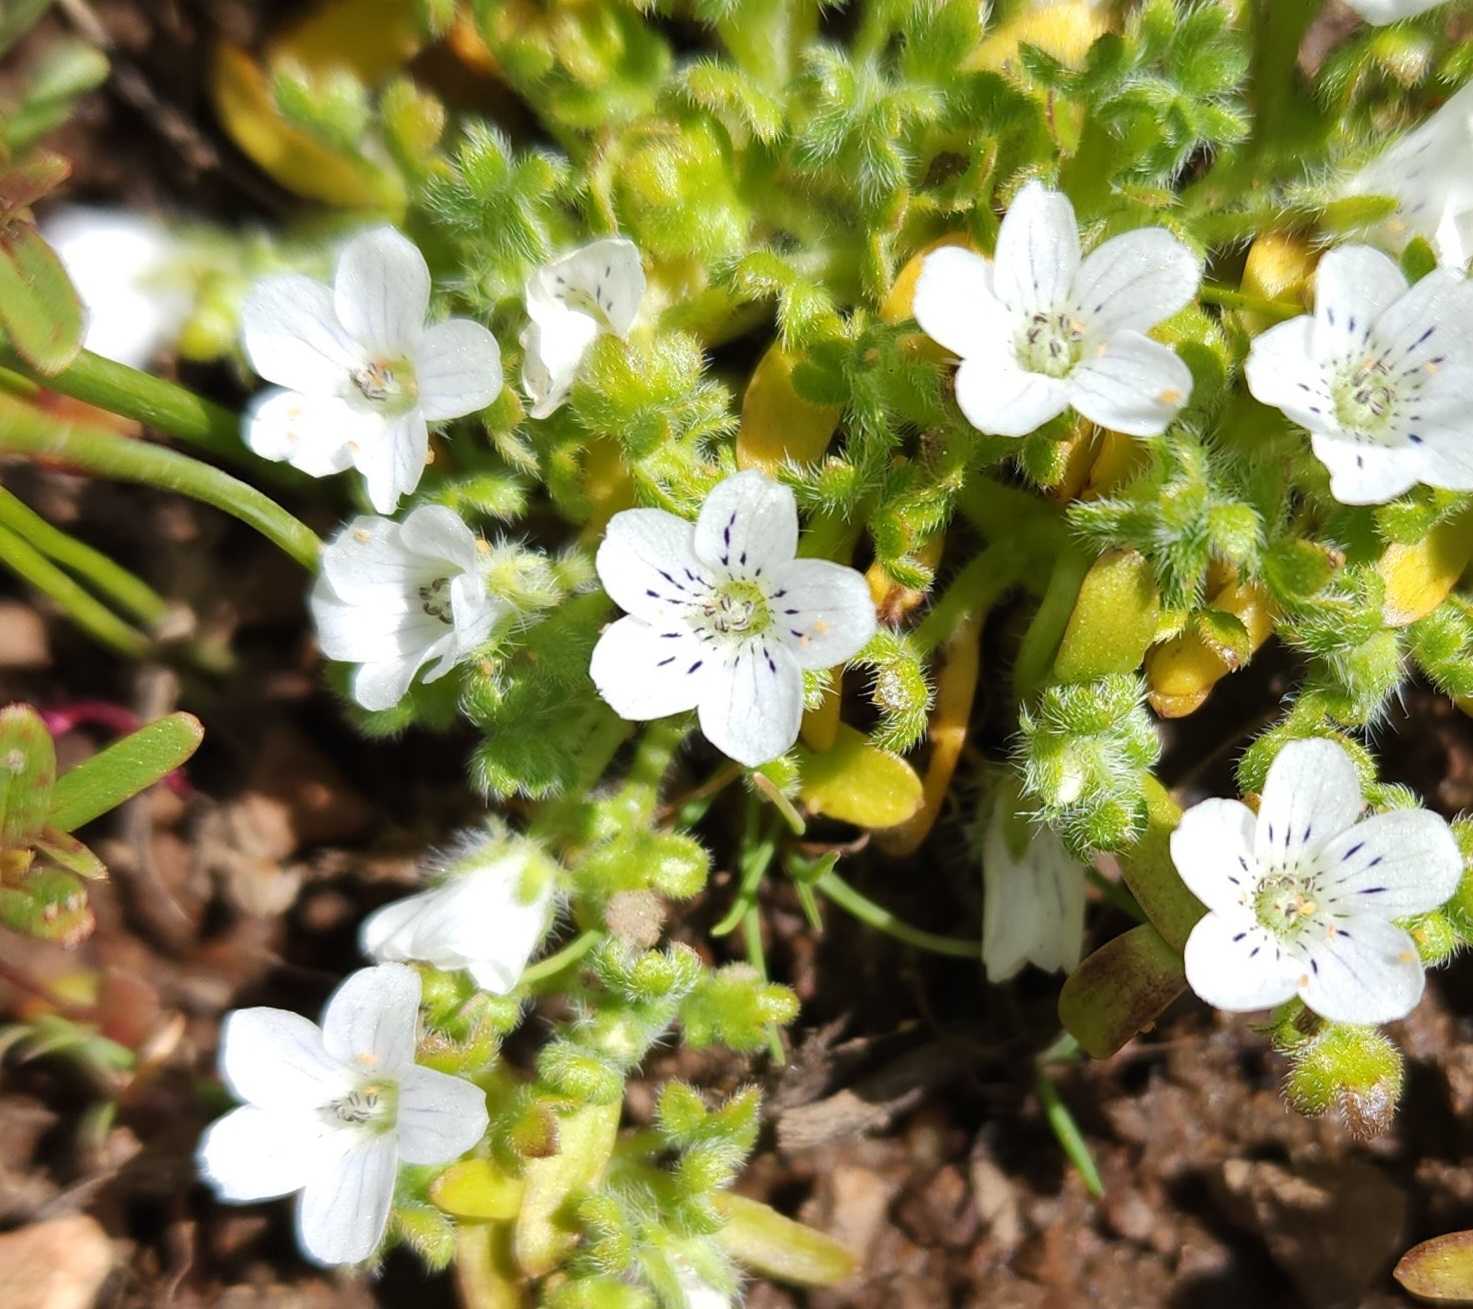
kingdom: Plantae
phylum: Tracheophyta
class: Magnoliopsida
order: Boraginales
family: Hydrophyllaceae
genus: Nemophila
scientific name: Nemophila pedunculata
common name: Little-foot baby-blue-eyes
